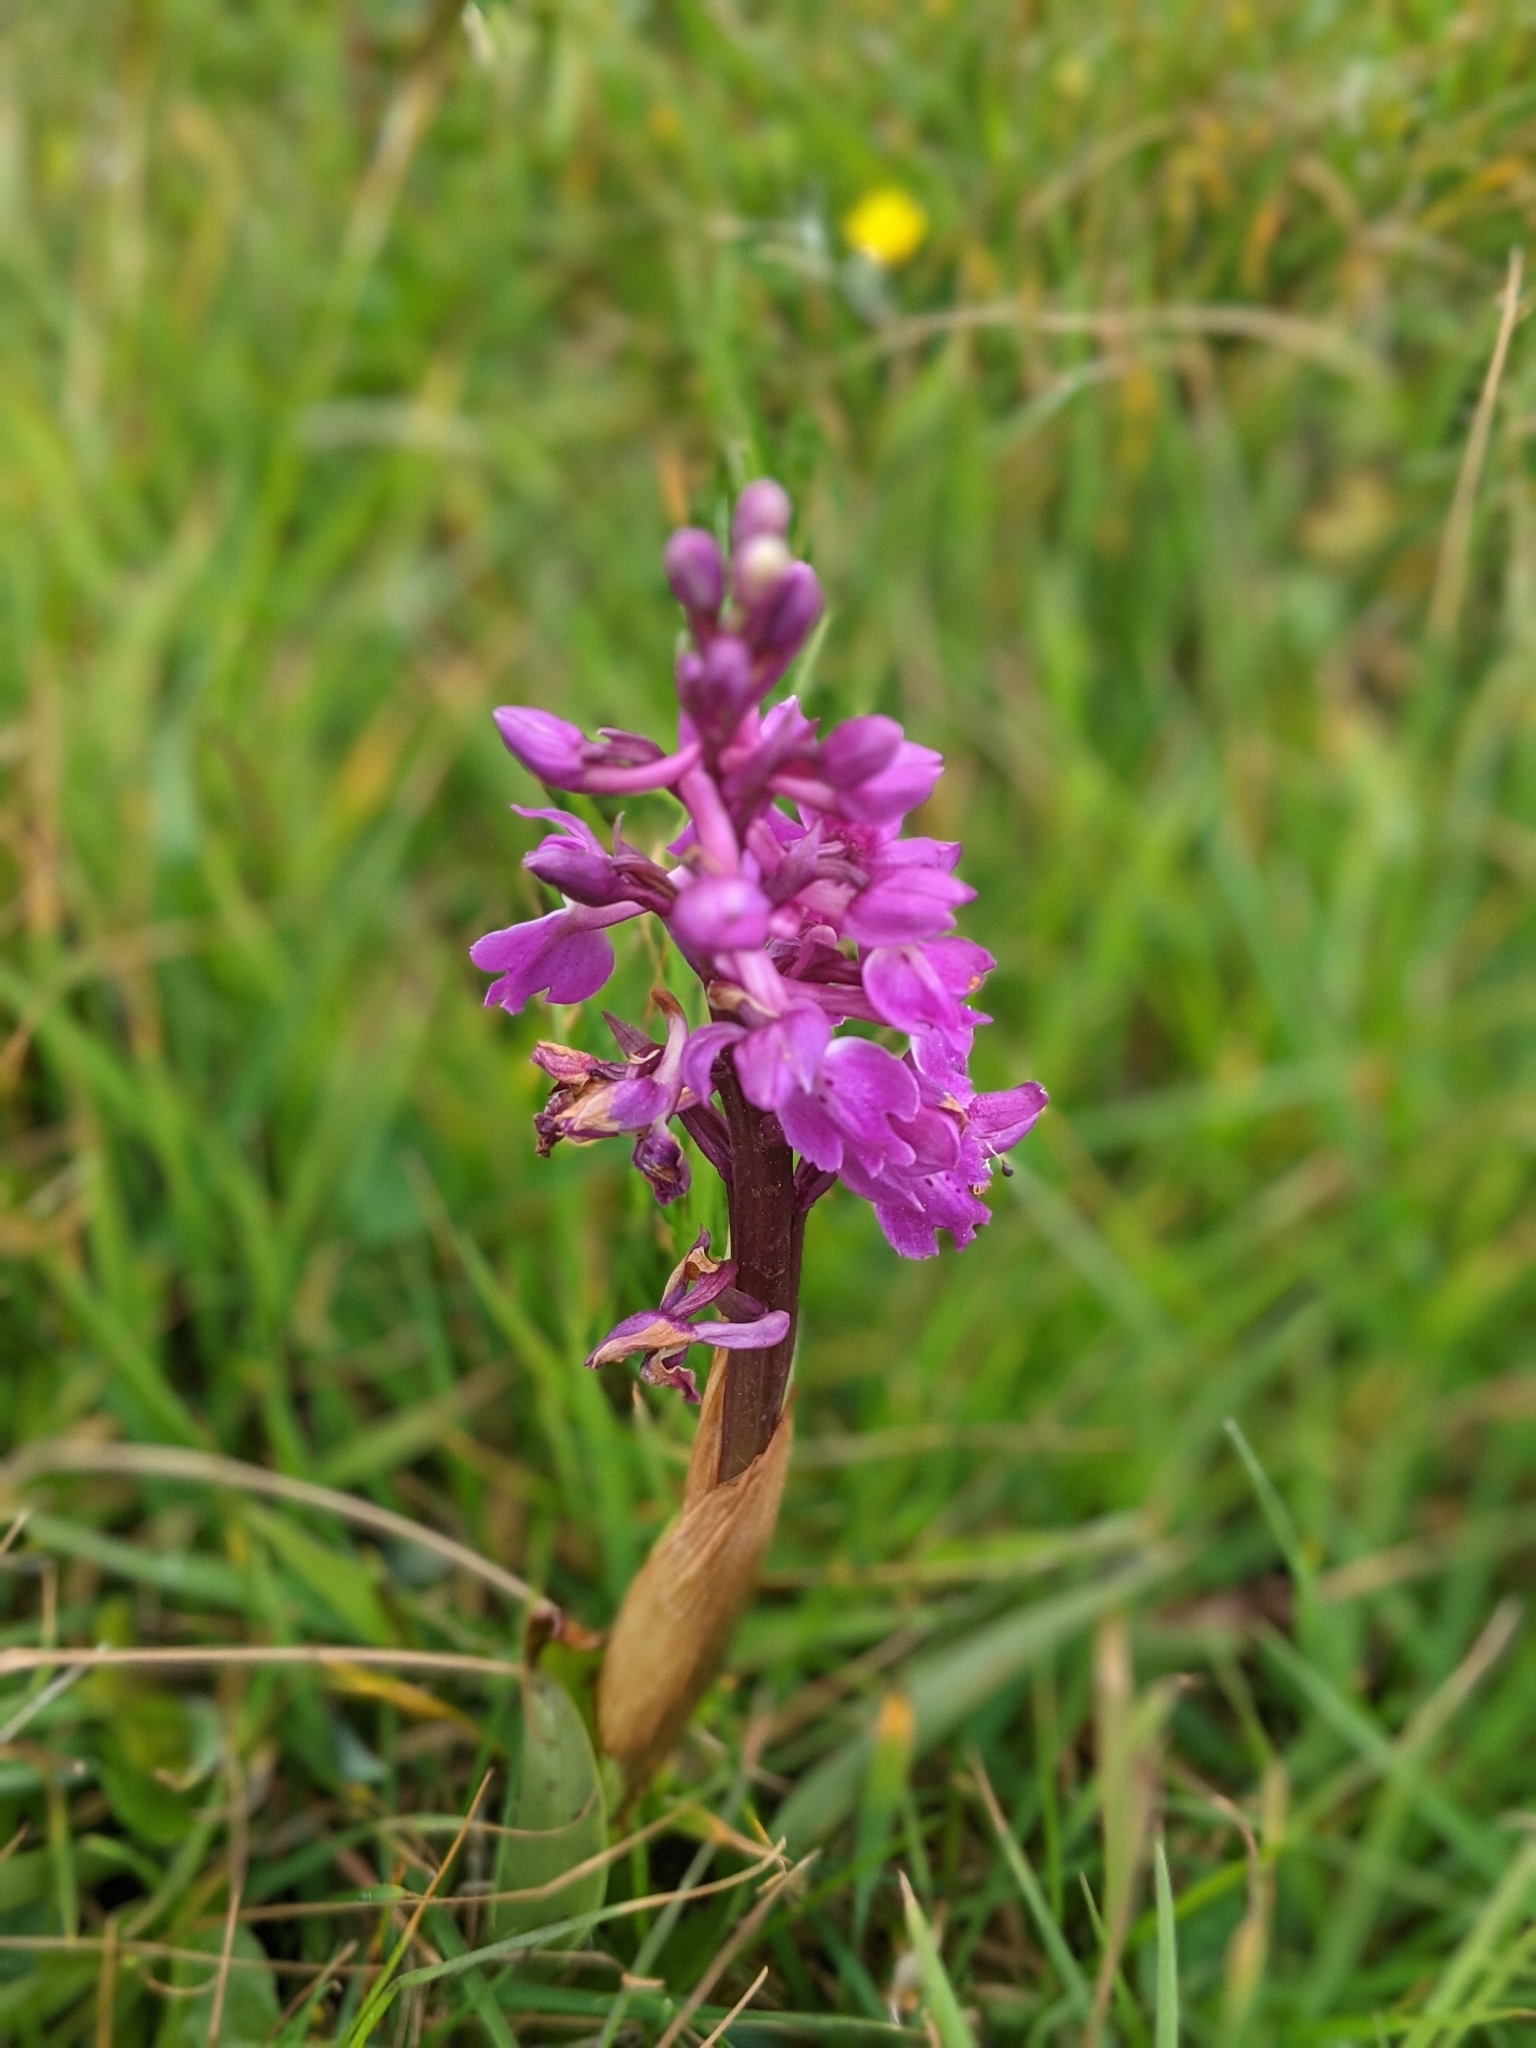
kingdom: Plantae
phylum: Tracheophyta
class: Liliopsida
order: Asparagales
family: Orchidaceae
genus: Orchis
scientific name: Orchis mascula
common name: Early-purple orchid
